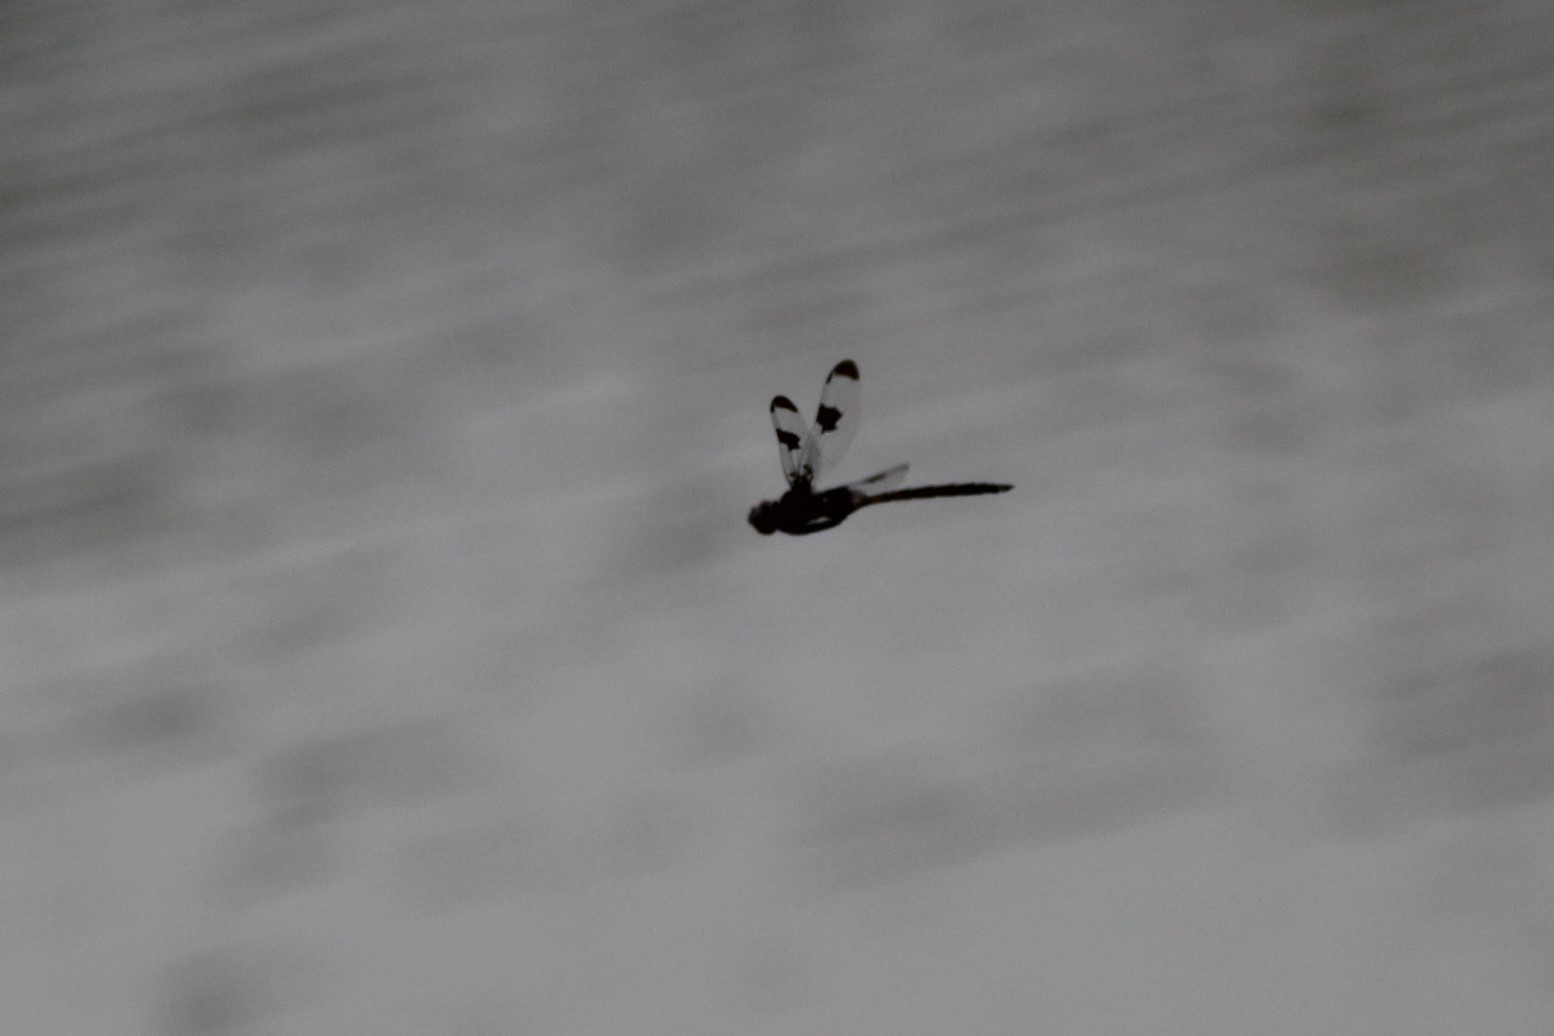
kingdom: Animalia
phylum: Arthropoda
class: Insecta
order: Odonata
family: Corduliidae
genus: Epitheca
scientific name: Epitheca princeps
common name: Prince baskettail
